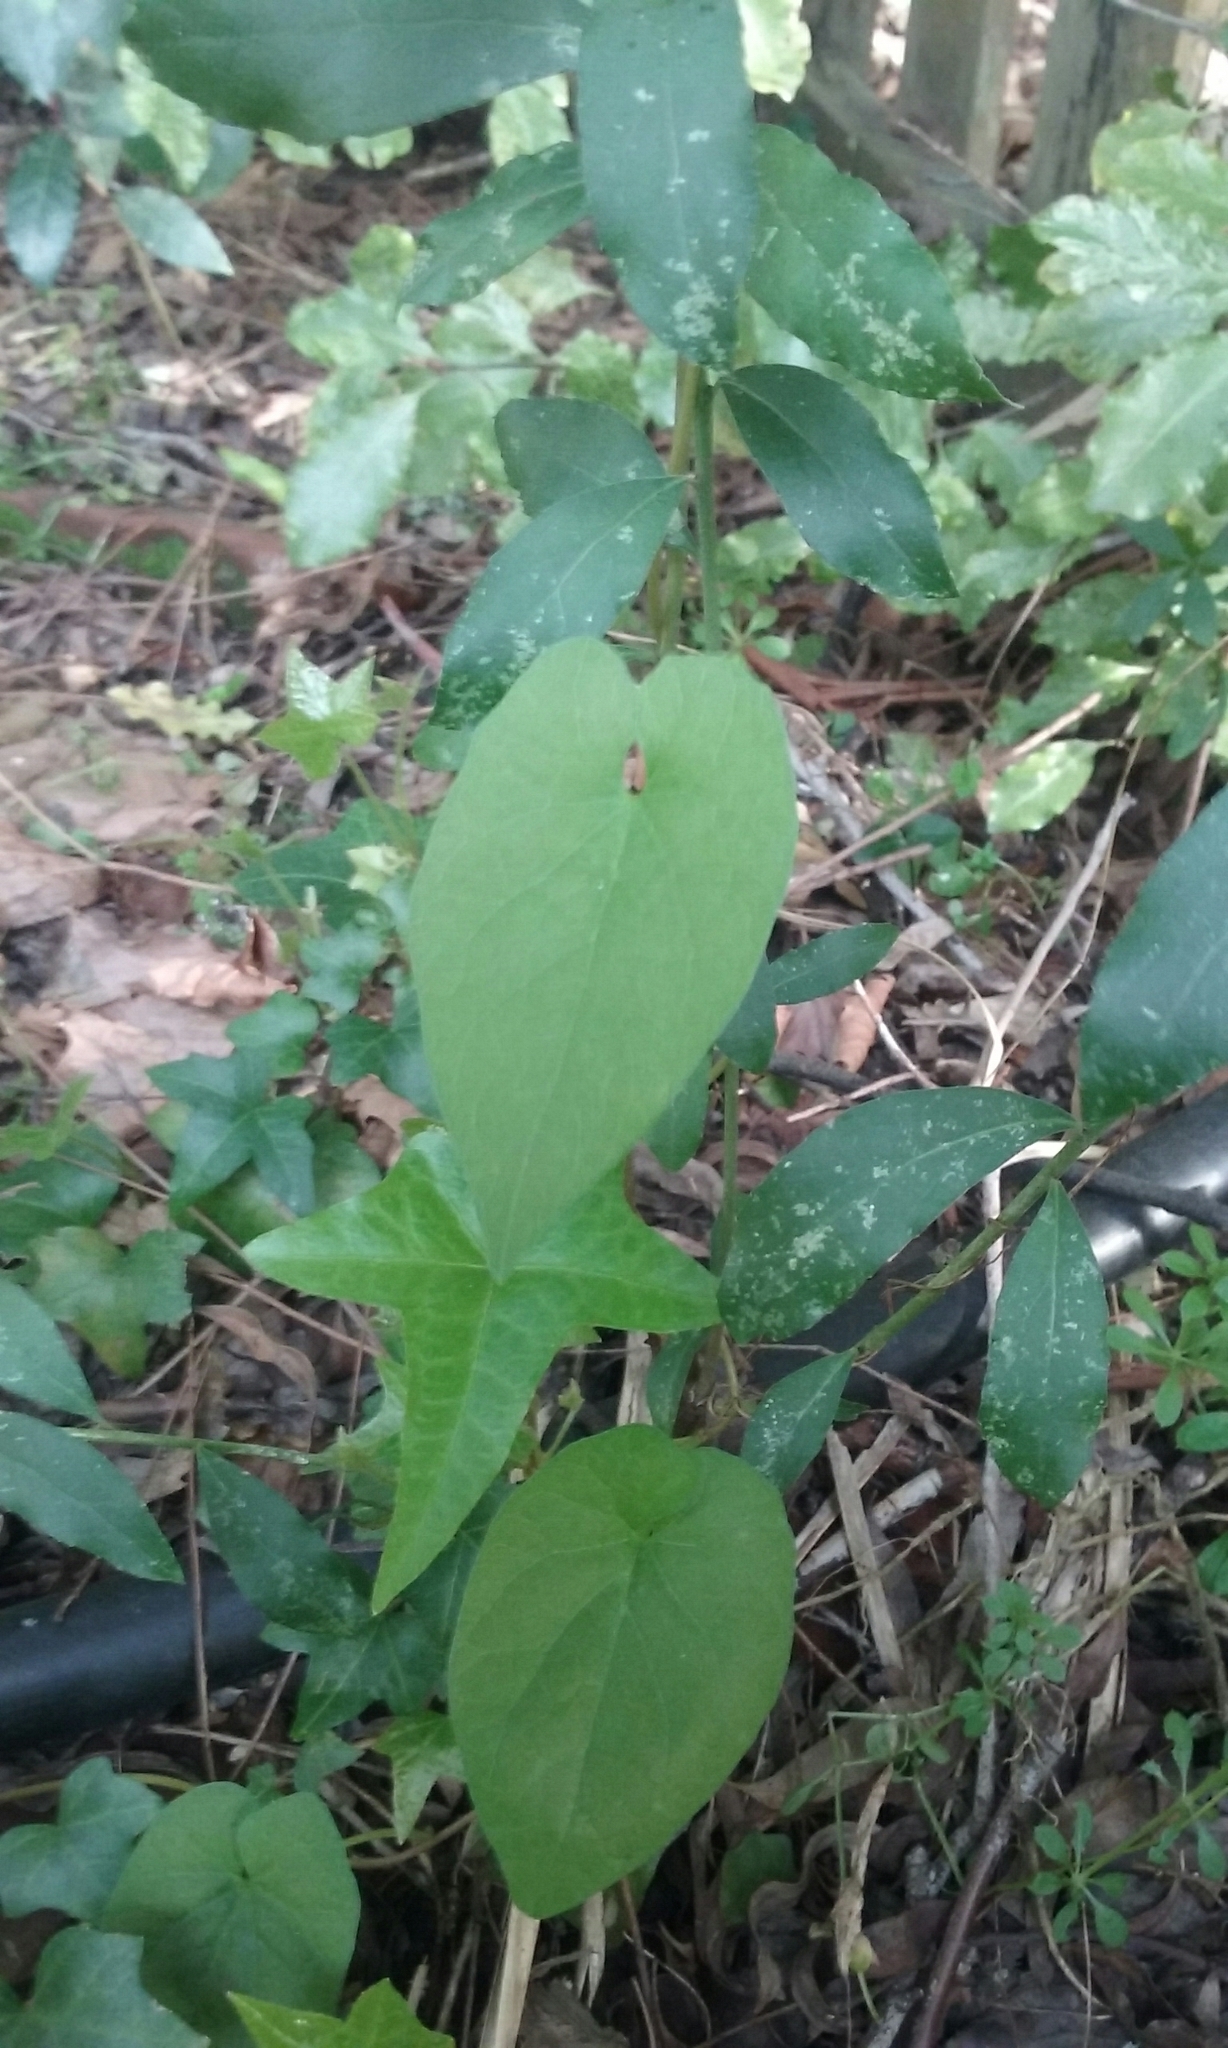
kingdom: Plantae
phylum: Tracheophyta
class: Magnoliopsida
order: Solanales
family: Convolvulaceae
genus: Calystegia
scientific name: Calystegia silvatica
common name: Large bindweed
